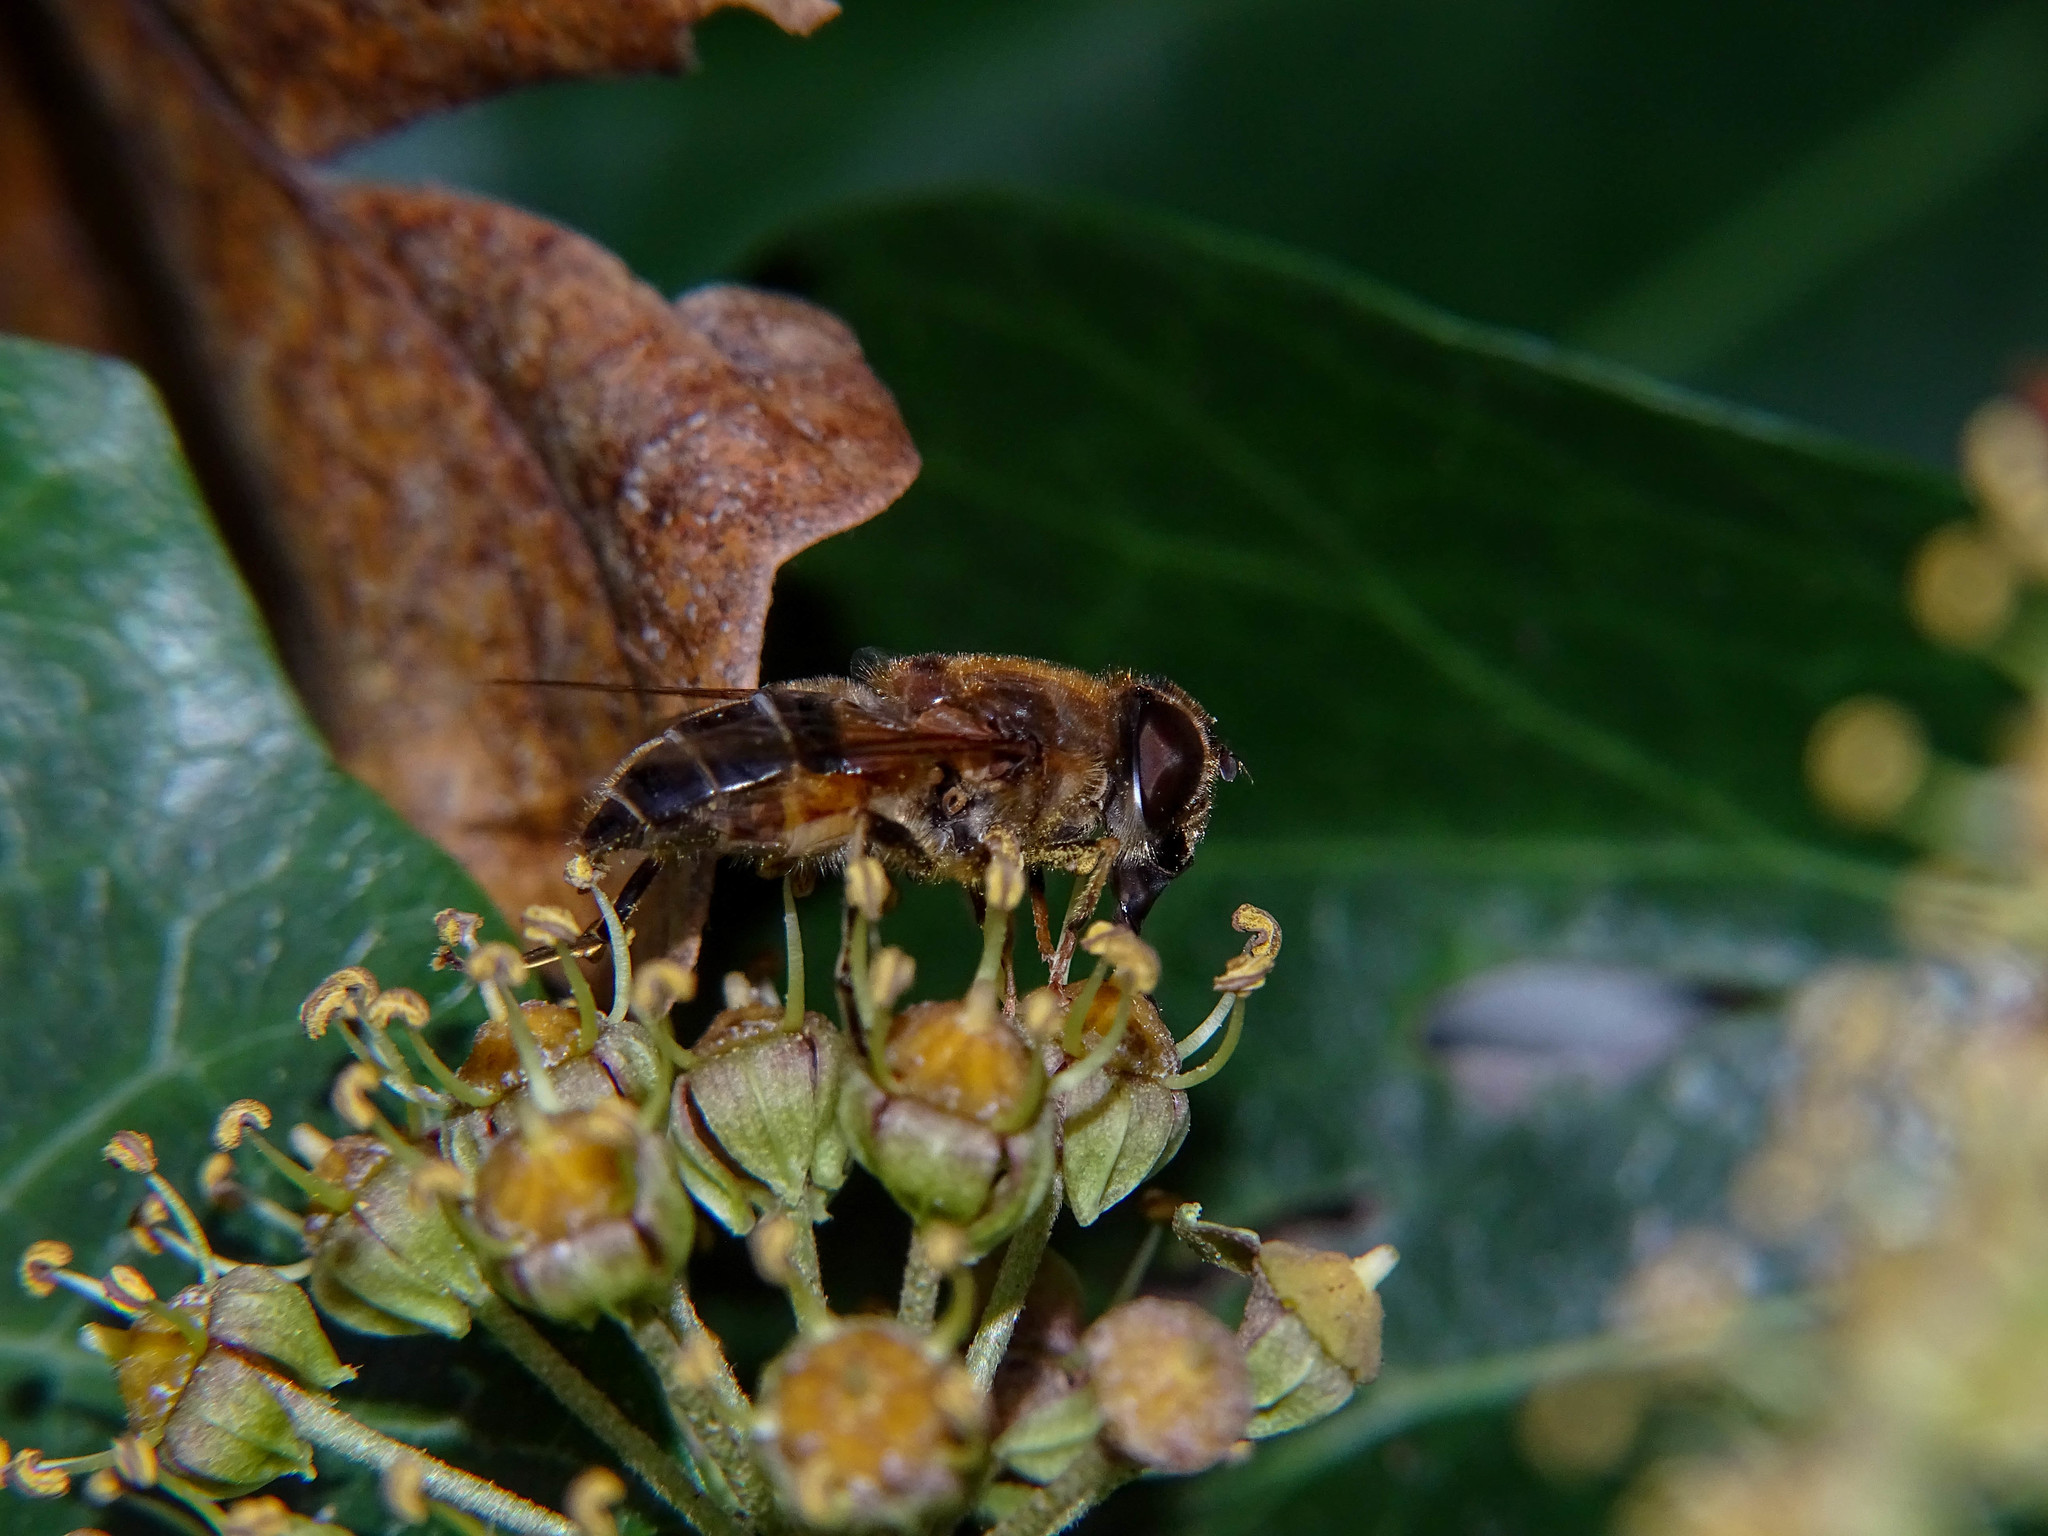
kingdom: Animalia
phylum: Arthropoda
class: Insecta
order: Diptera
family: Syrphidae
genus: Eristalis
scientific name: Eristalis pertinax
